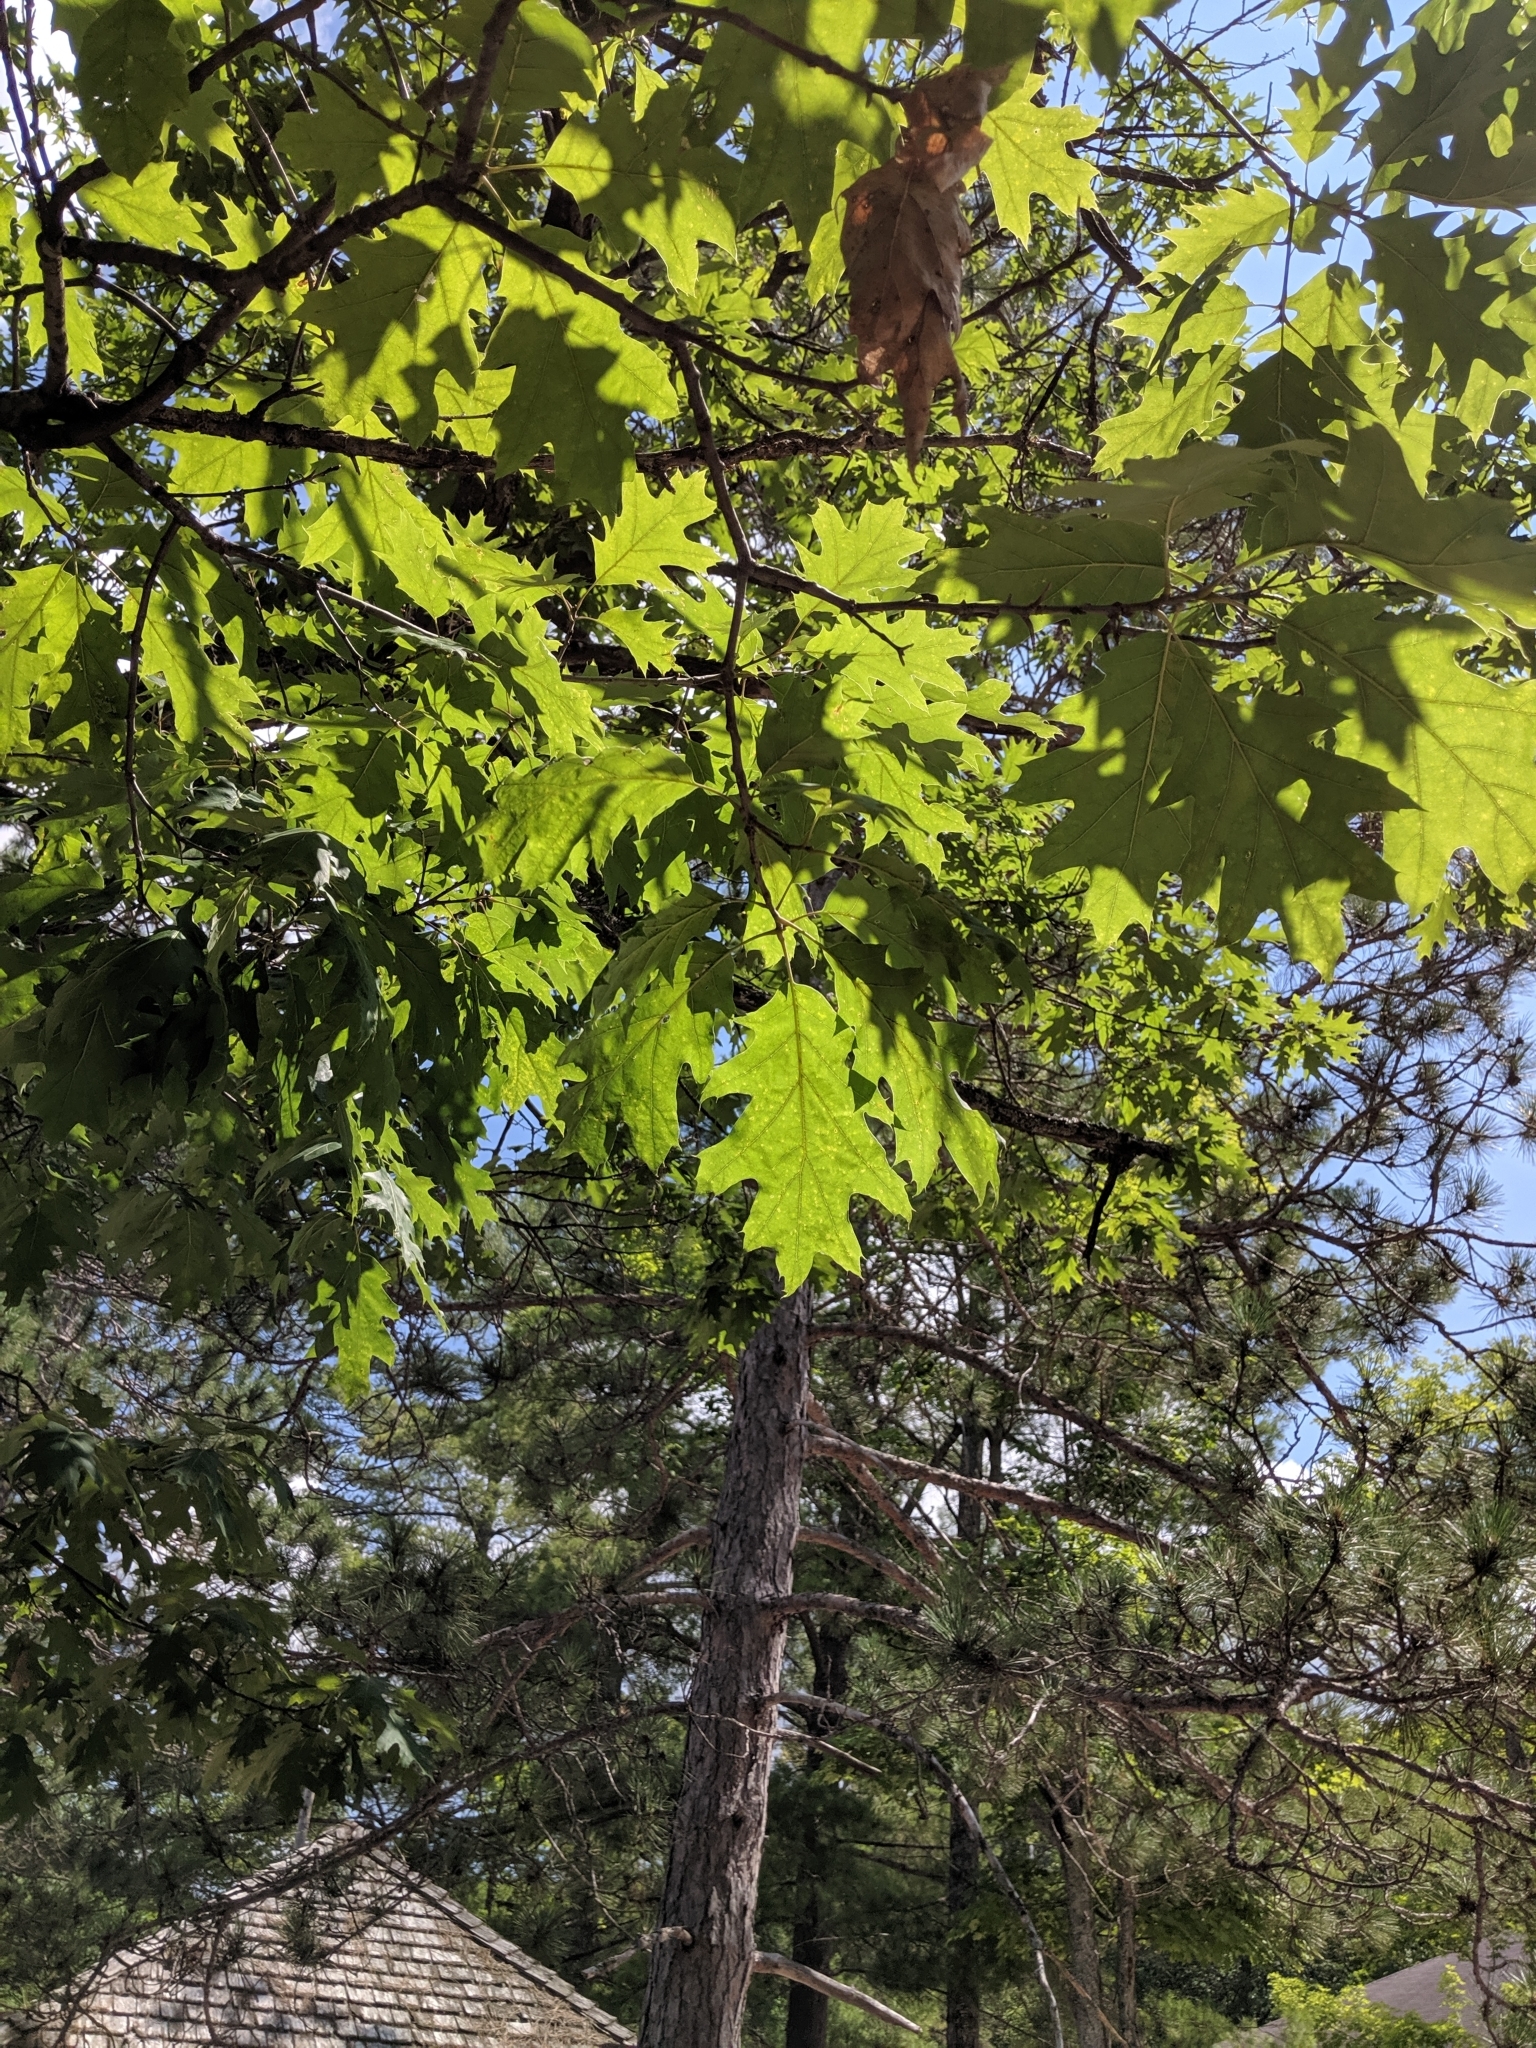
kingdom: Plantae
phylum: Tracheophyta
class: Magnoliopsida
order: Fagales
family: Fagaceae
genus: Quercus
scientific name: Quercus rubra
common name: Red oak
